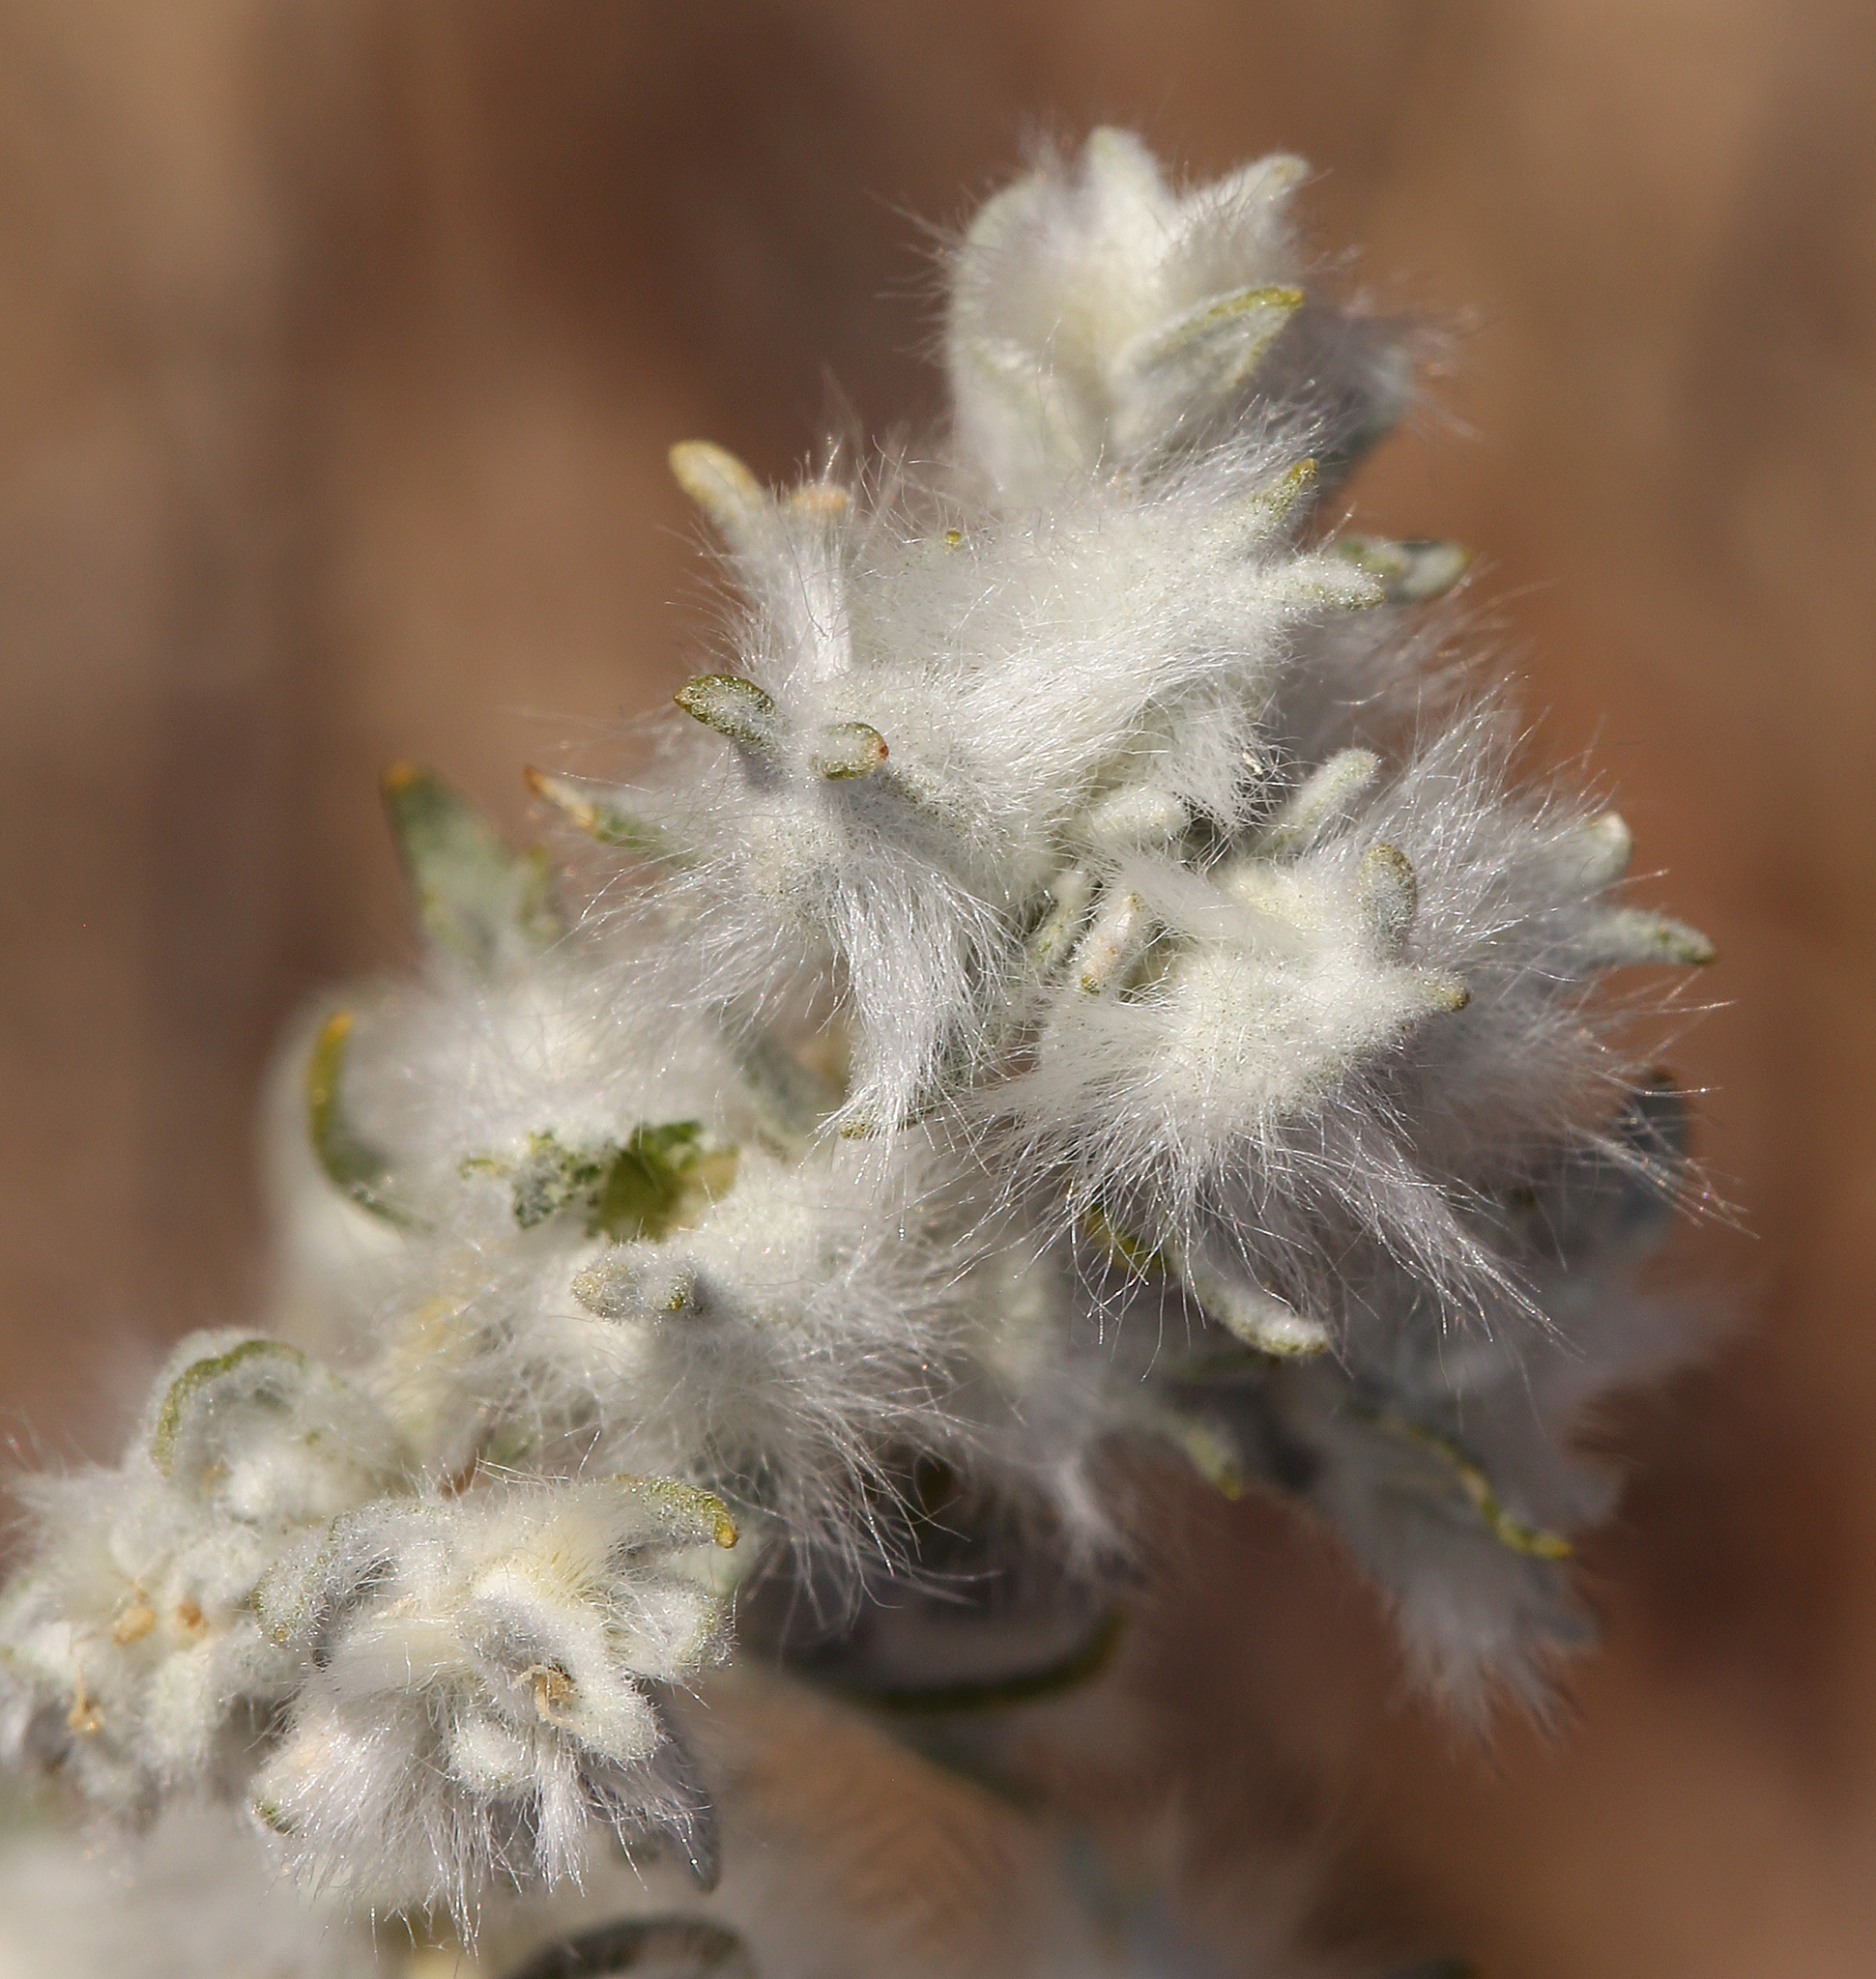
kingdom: Plantae
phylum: Tracheophyta
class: Magnoliopsida
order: Caryophyllales
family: Amaranthaceae
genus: Krascheninnikovia
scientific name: Krascheninnikovia lanata
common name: Winterfat
